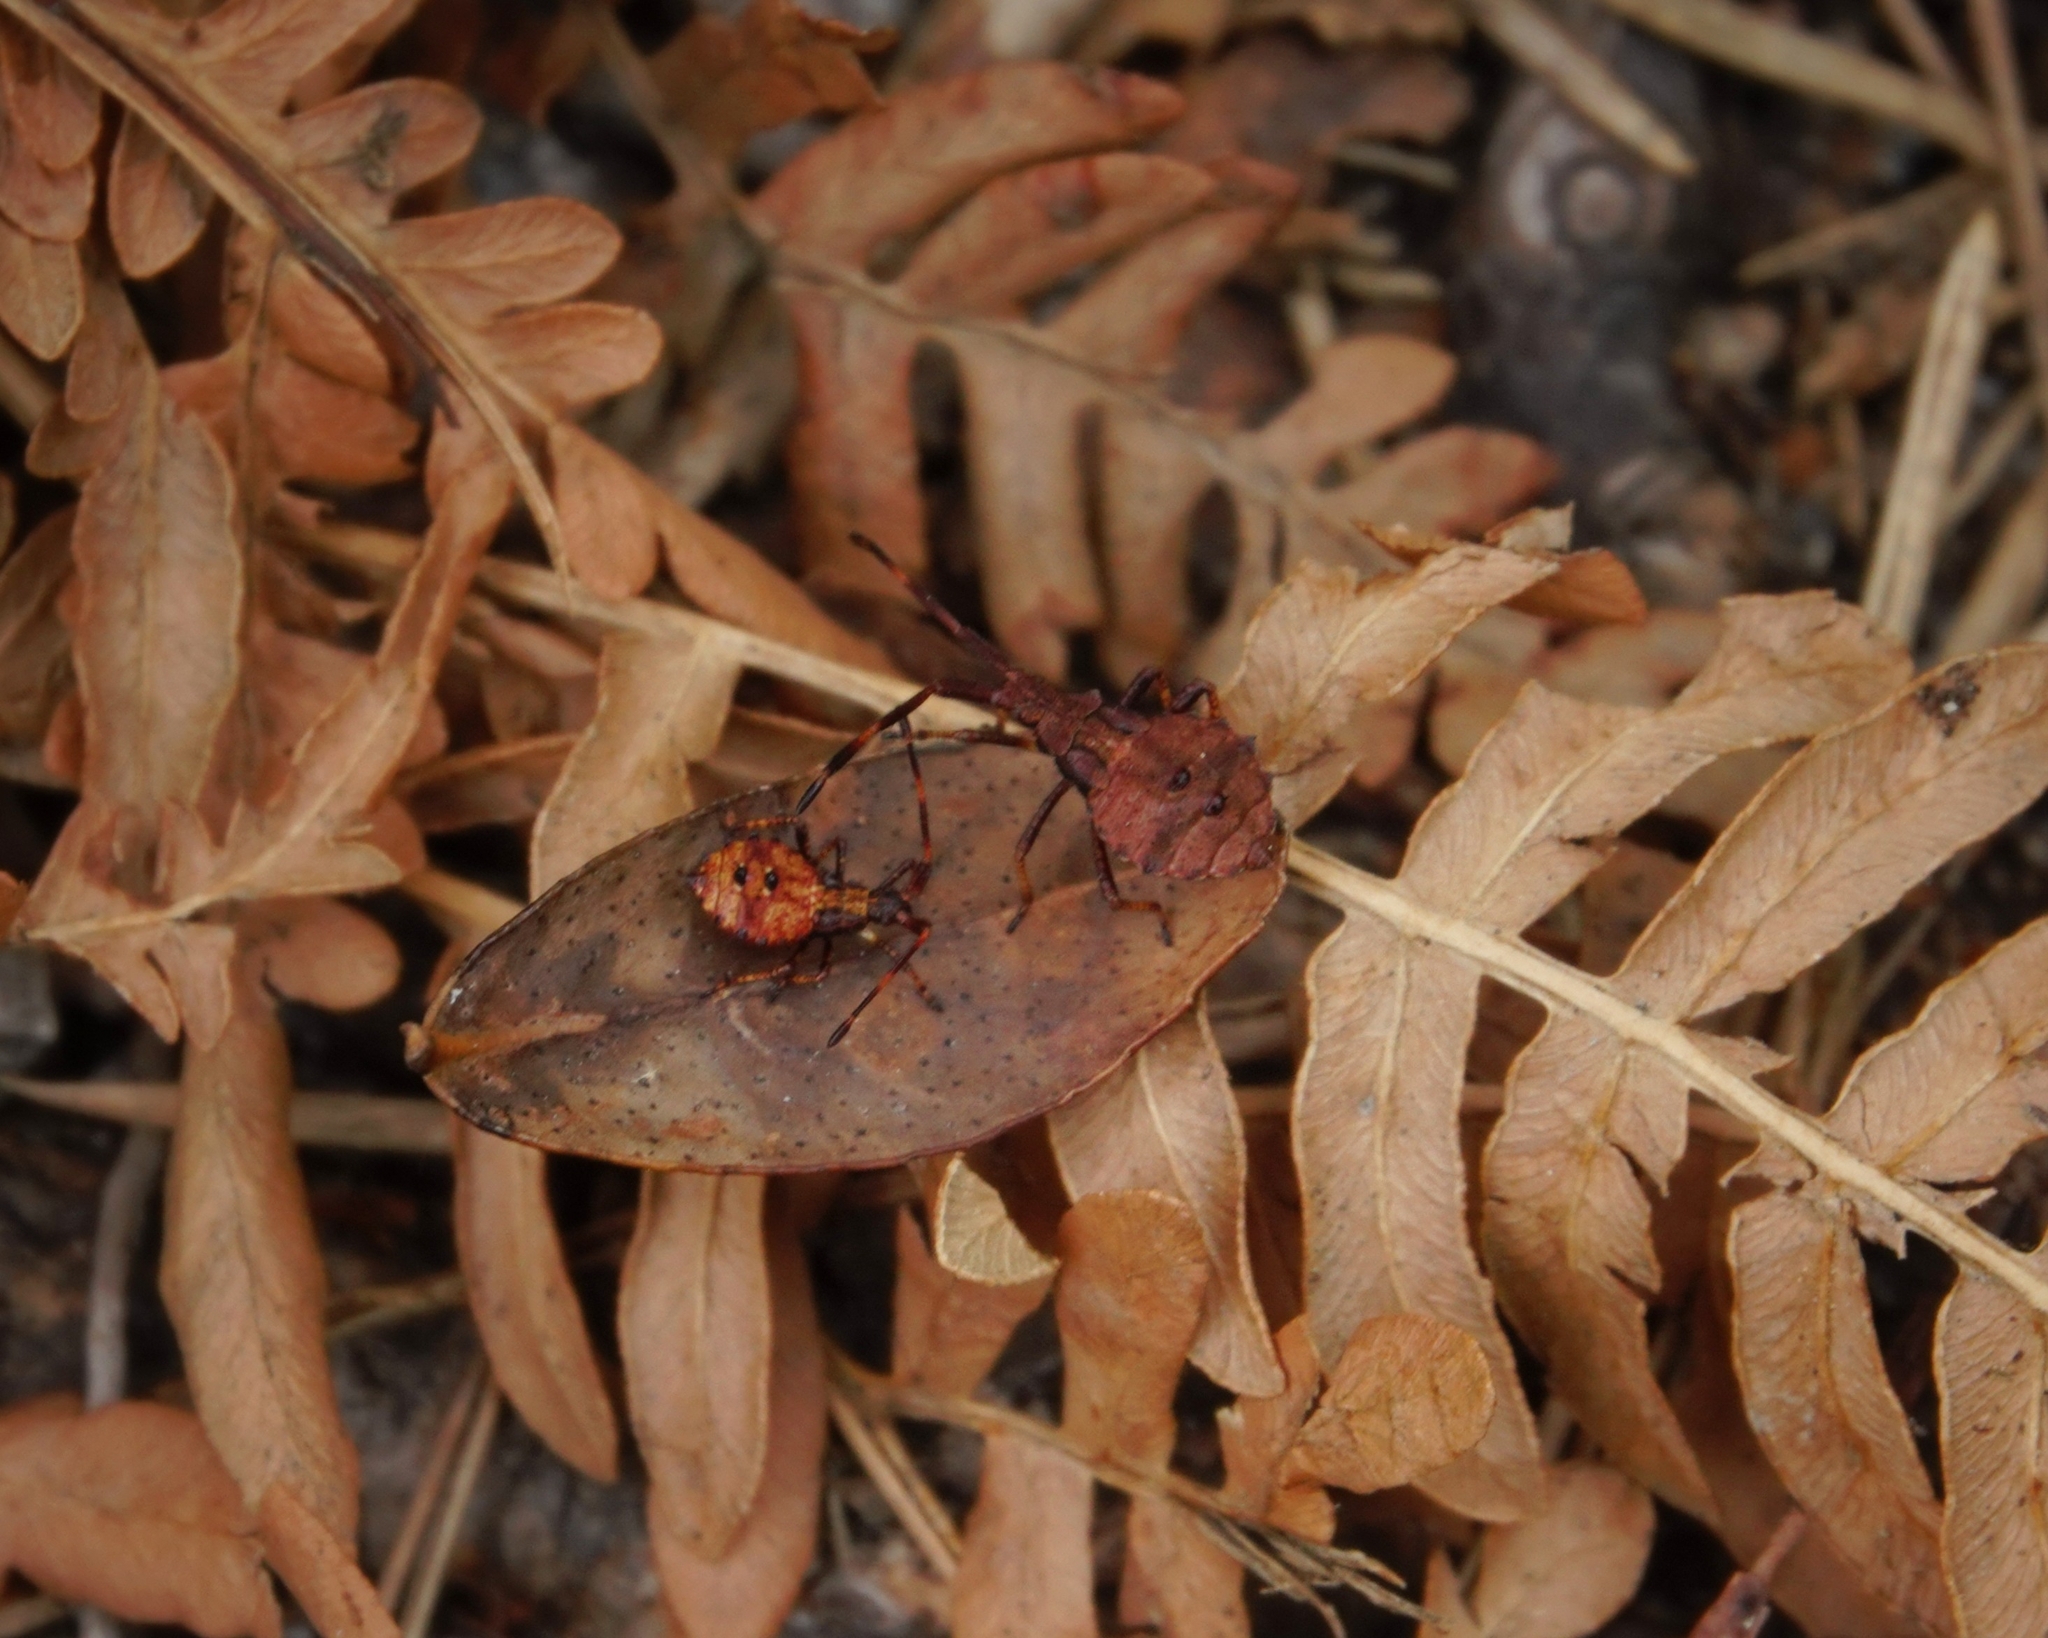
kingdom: Animalia
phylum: Arthropoda
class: Insecta
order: Hemiptera
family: Coreidae
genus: Coreus
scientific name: Coreus marginatus
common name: Dock bug
